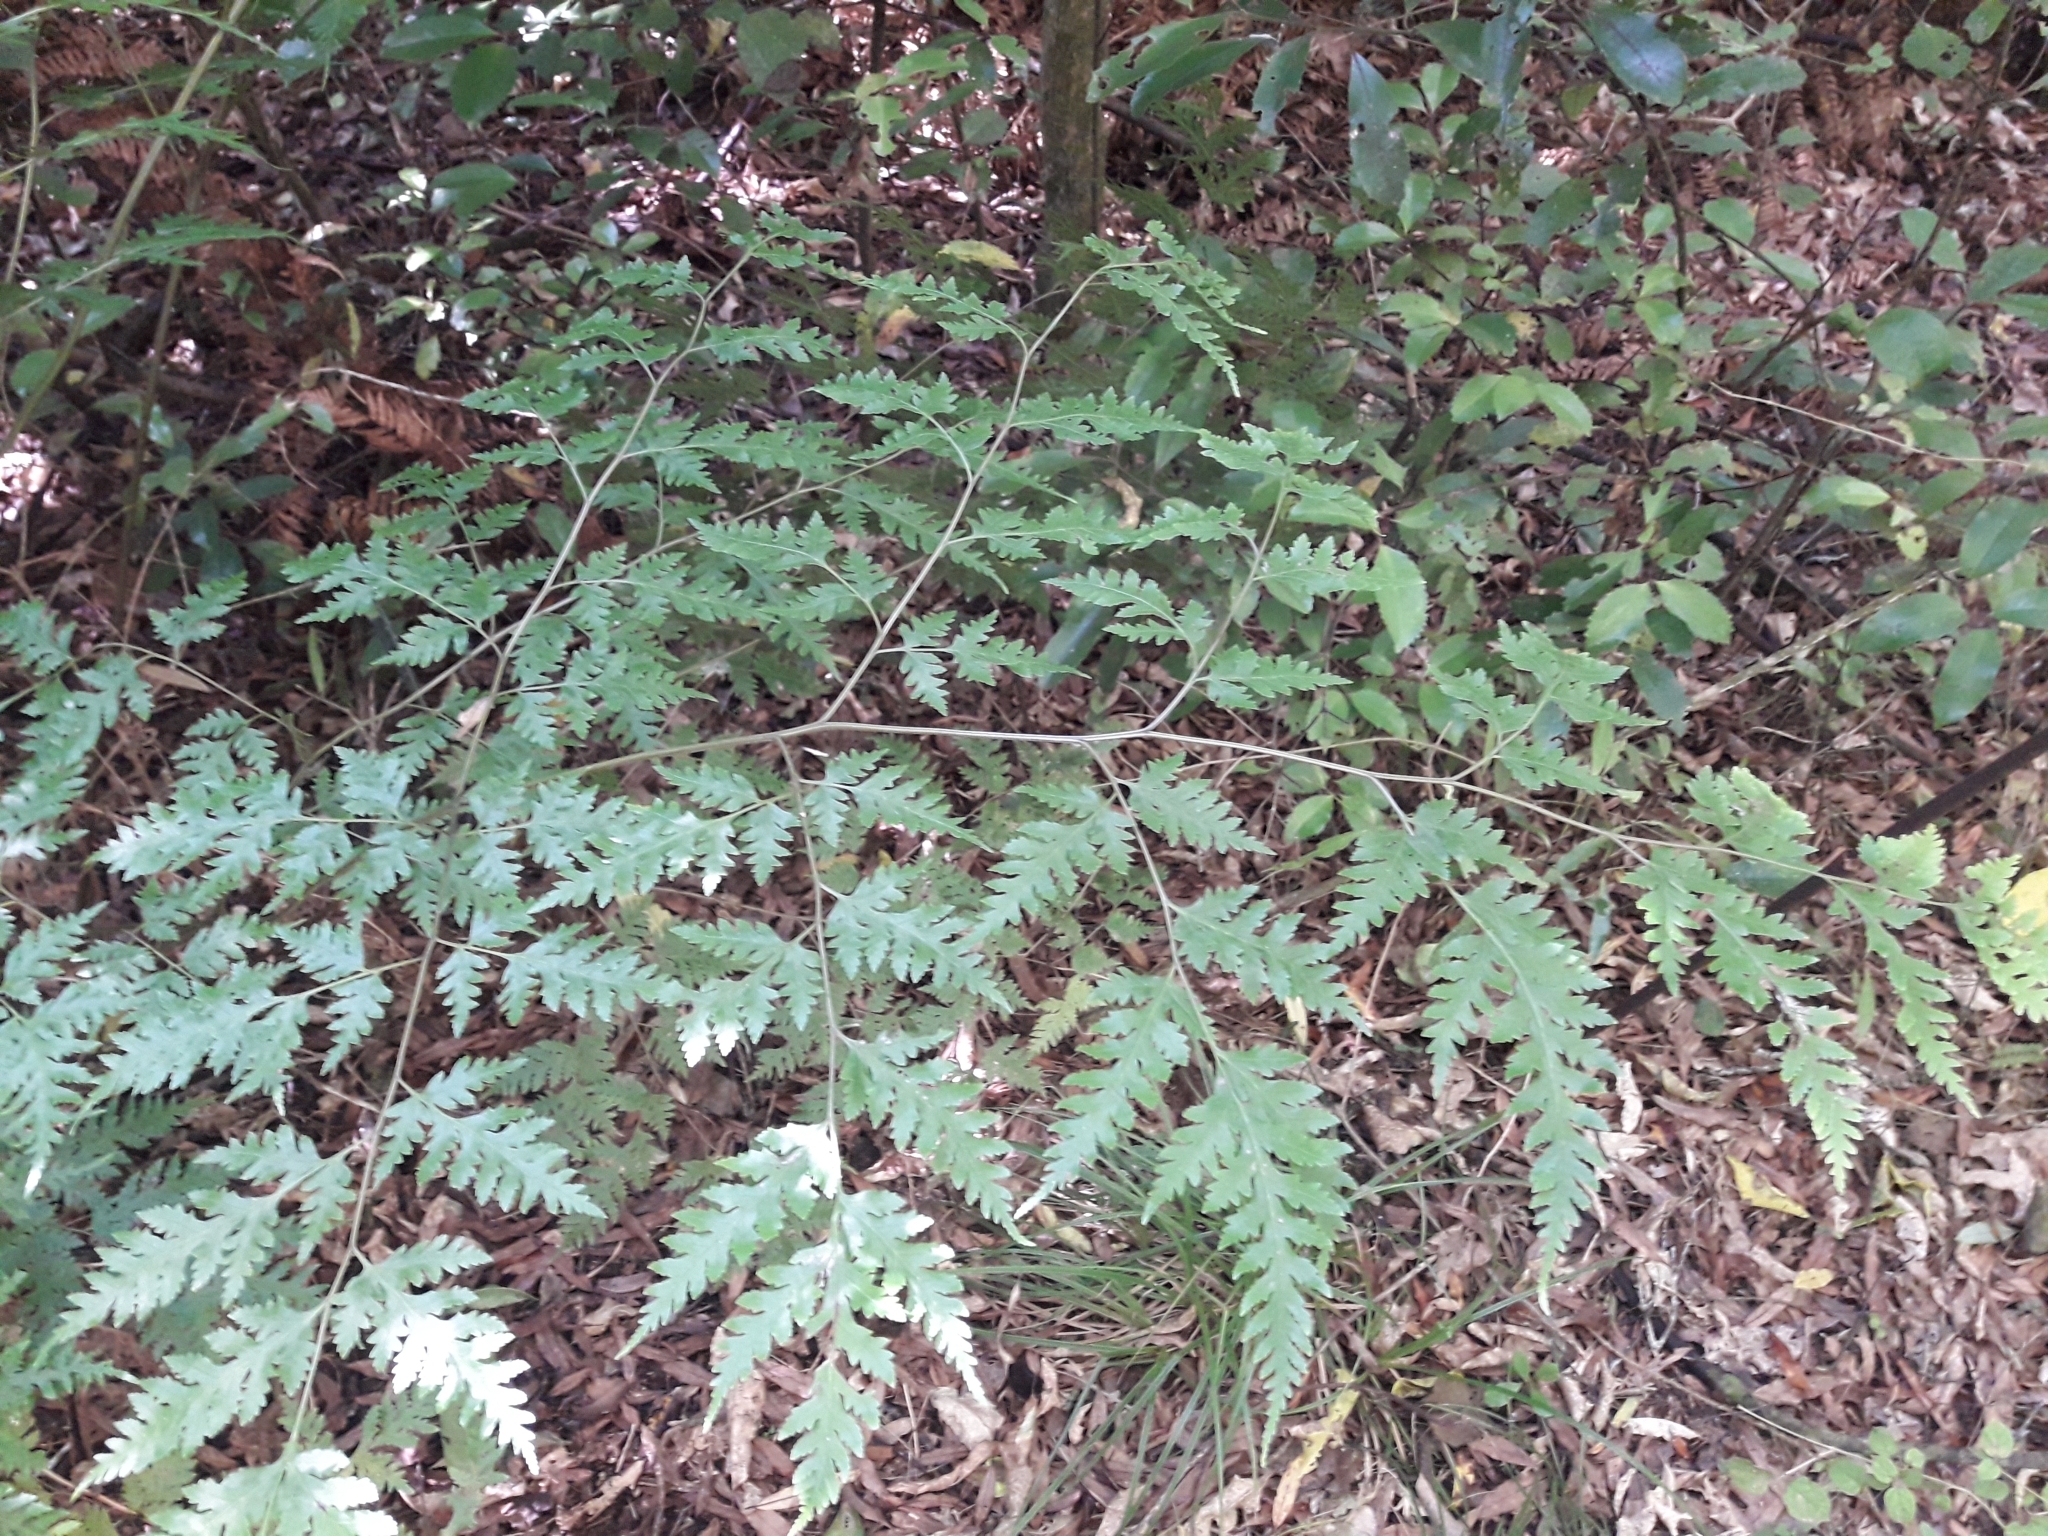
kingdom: Plantae
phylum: Tracheophyta
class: Polypodiopsida
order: Polypodiales
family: Pteridaceae
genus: Pteris
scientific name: Pteris macilenta
